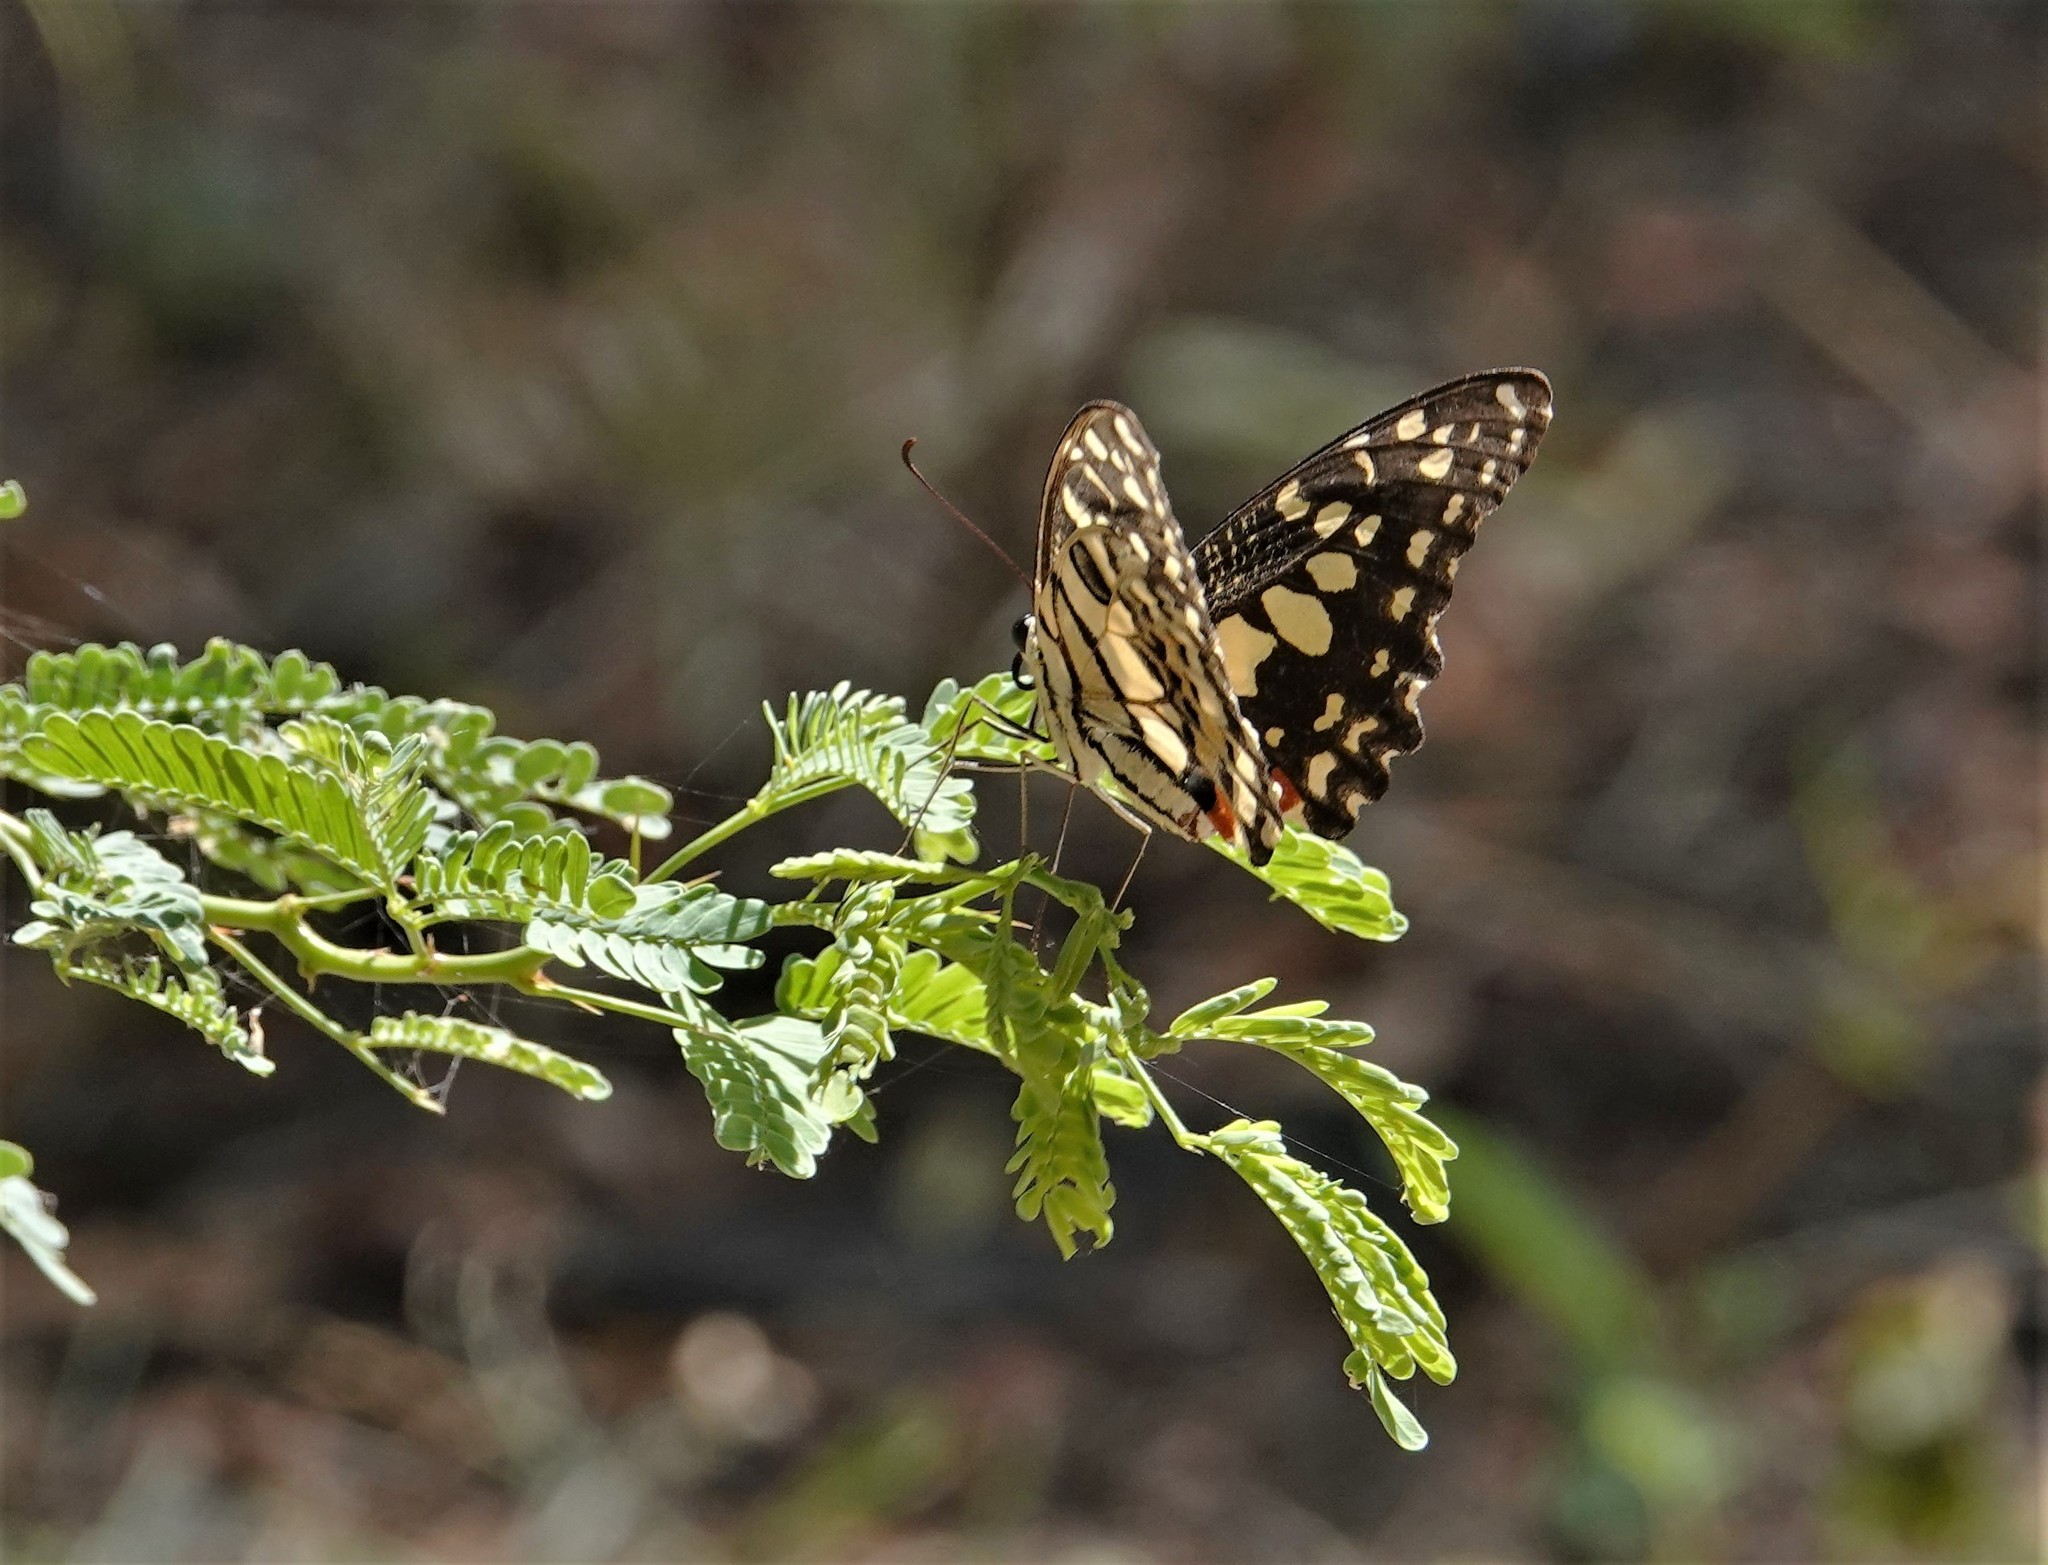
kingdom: Animalia
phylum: Arthropoda
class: Insecta
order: Lepidoptera
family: Papilionidae
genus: Papilio
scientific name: Papilio demoleus
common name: Lime butterfly
